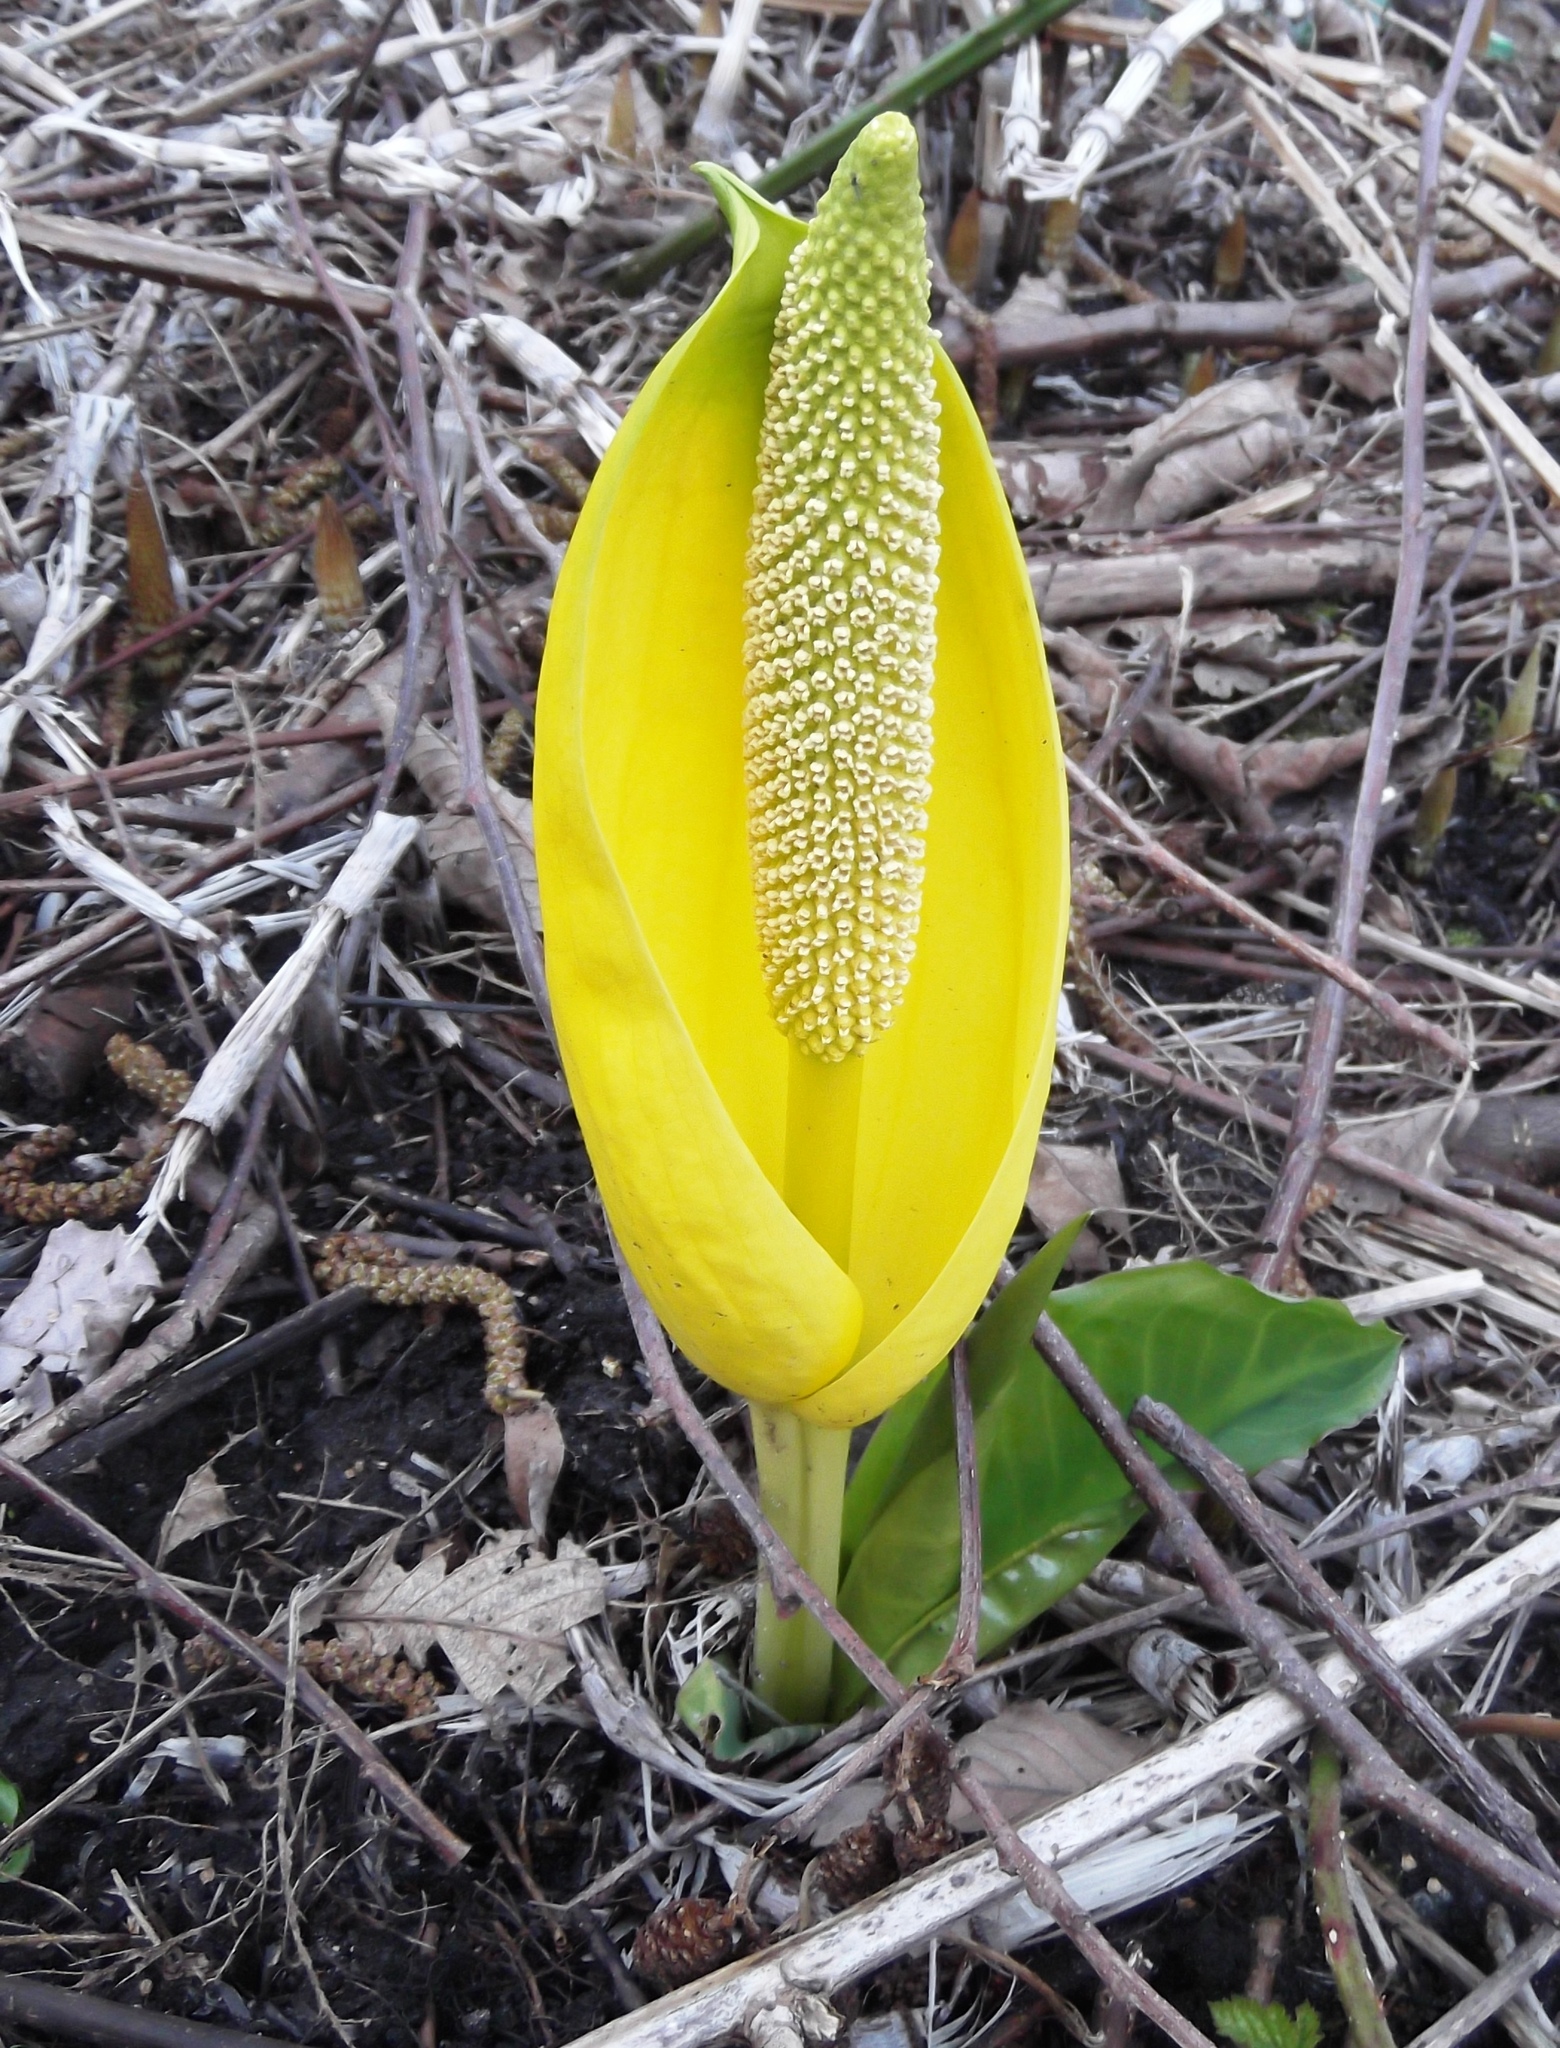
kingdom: Plantae
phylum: Tracheophyta
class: Liliopsida
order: Alismatales
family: Araceae
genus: Lysichiton
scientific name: Lysichiton americanus
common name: American skunk cabbage
